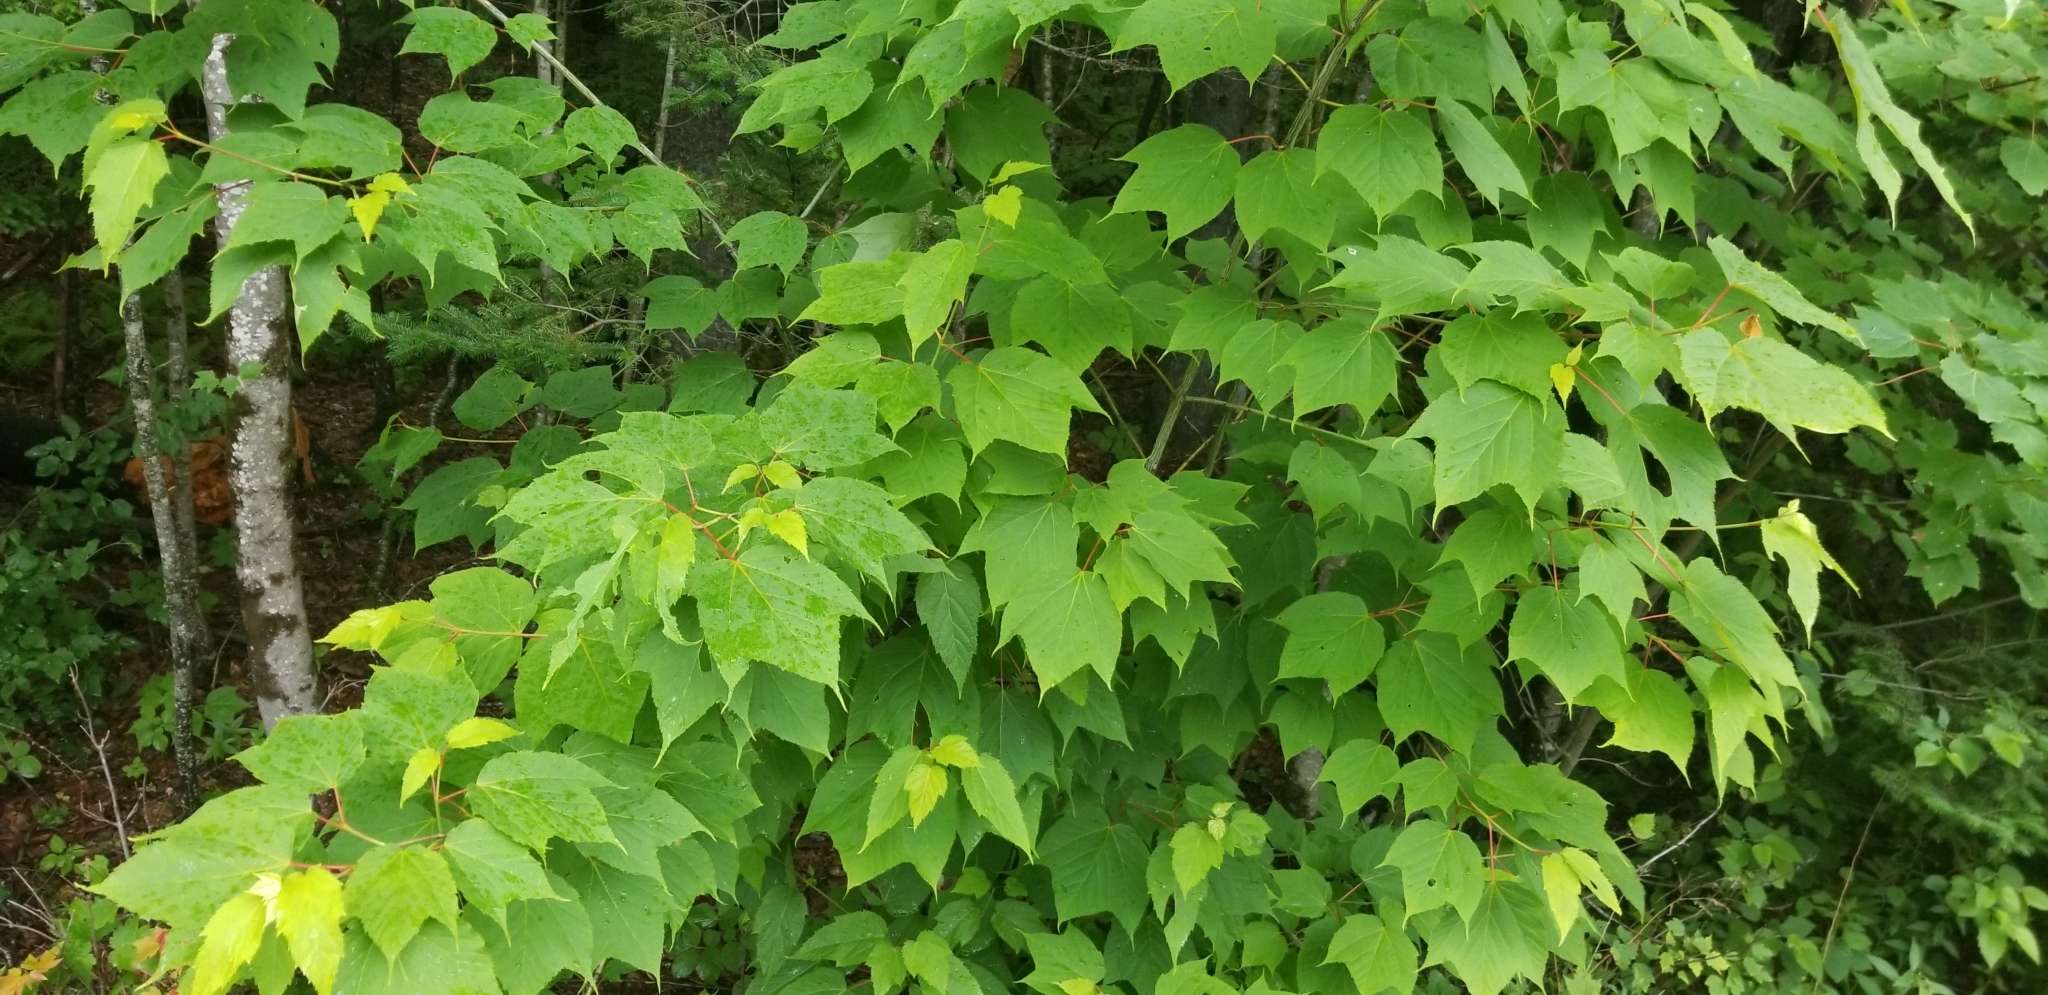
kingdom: Plantae
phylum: Tracheophyta
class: Magnoliopsida
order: Sapindales
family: Sapindaceae
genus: Acer
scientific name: Acer pensylvanicum
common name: Moosewood
